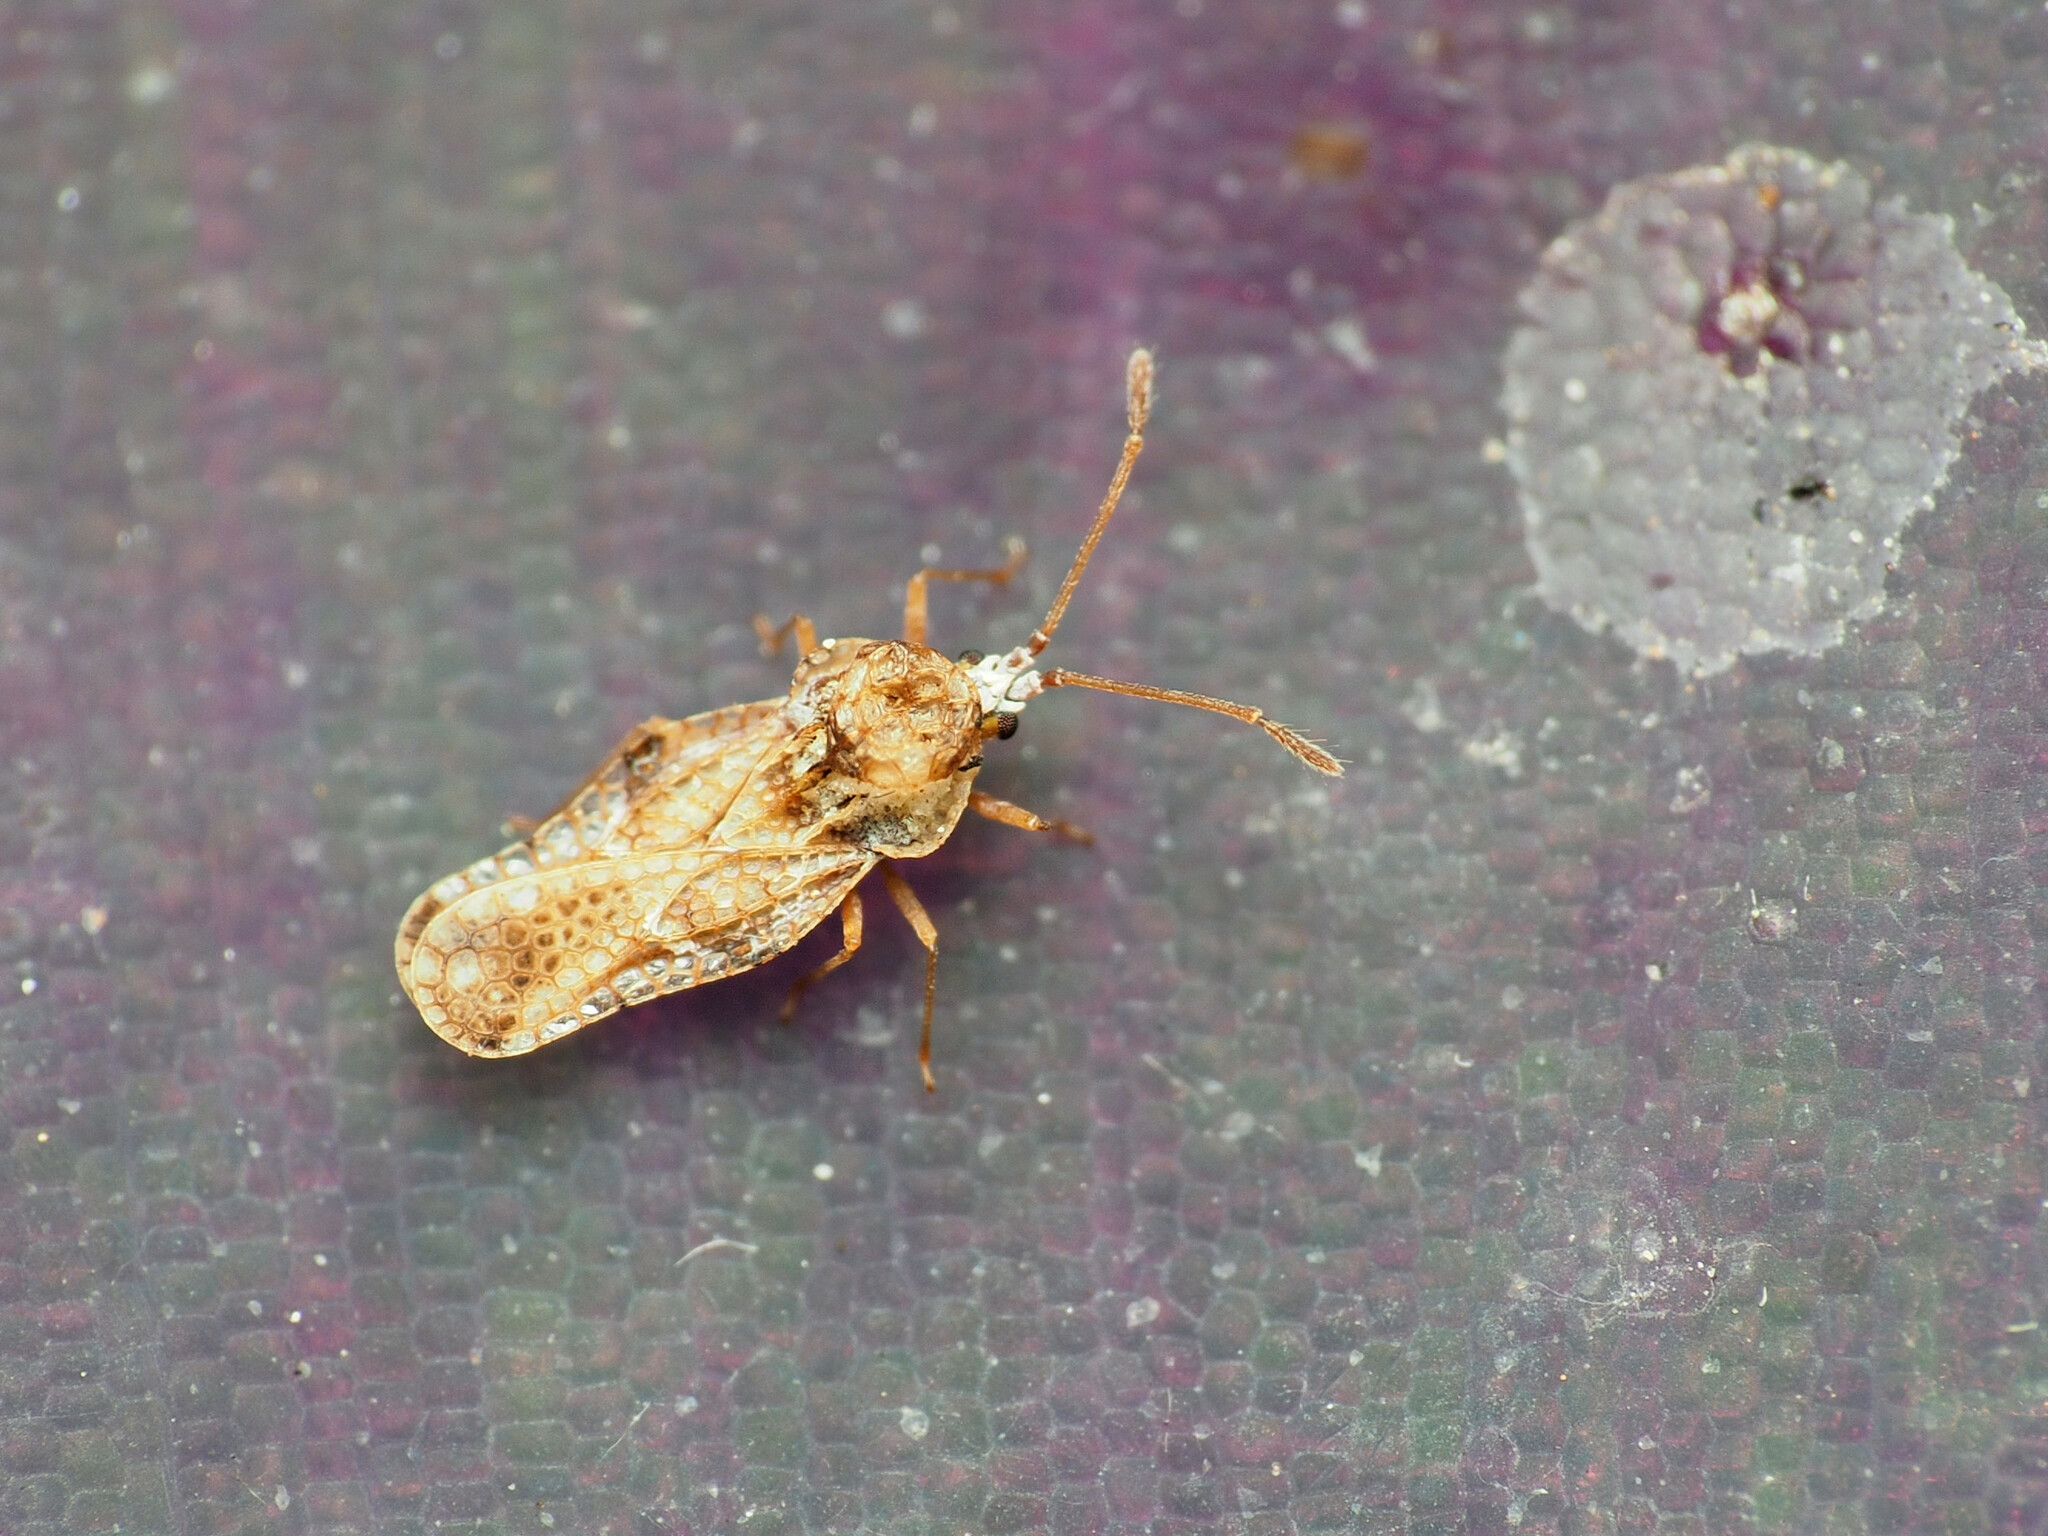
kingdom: Animalia
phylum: Arthropoda
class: Insecta
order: Hemiptera
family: Tingidae
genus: Corythauma
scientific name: Corythauma ayyari
